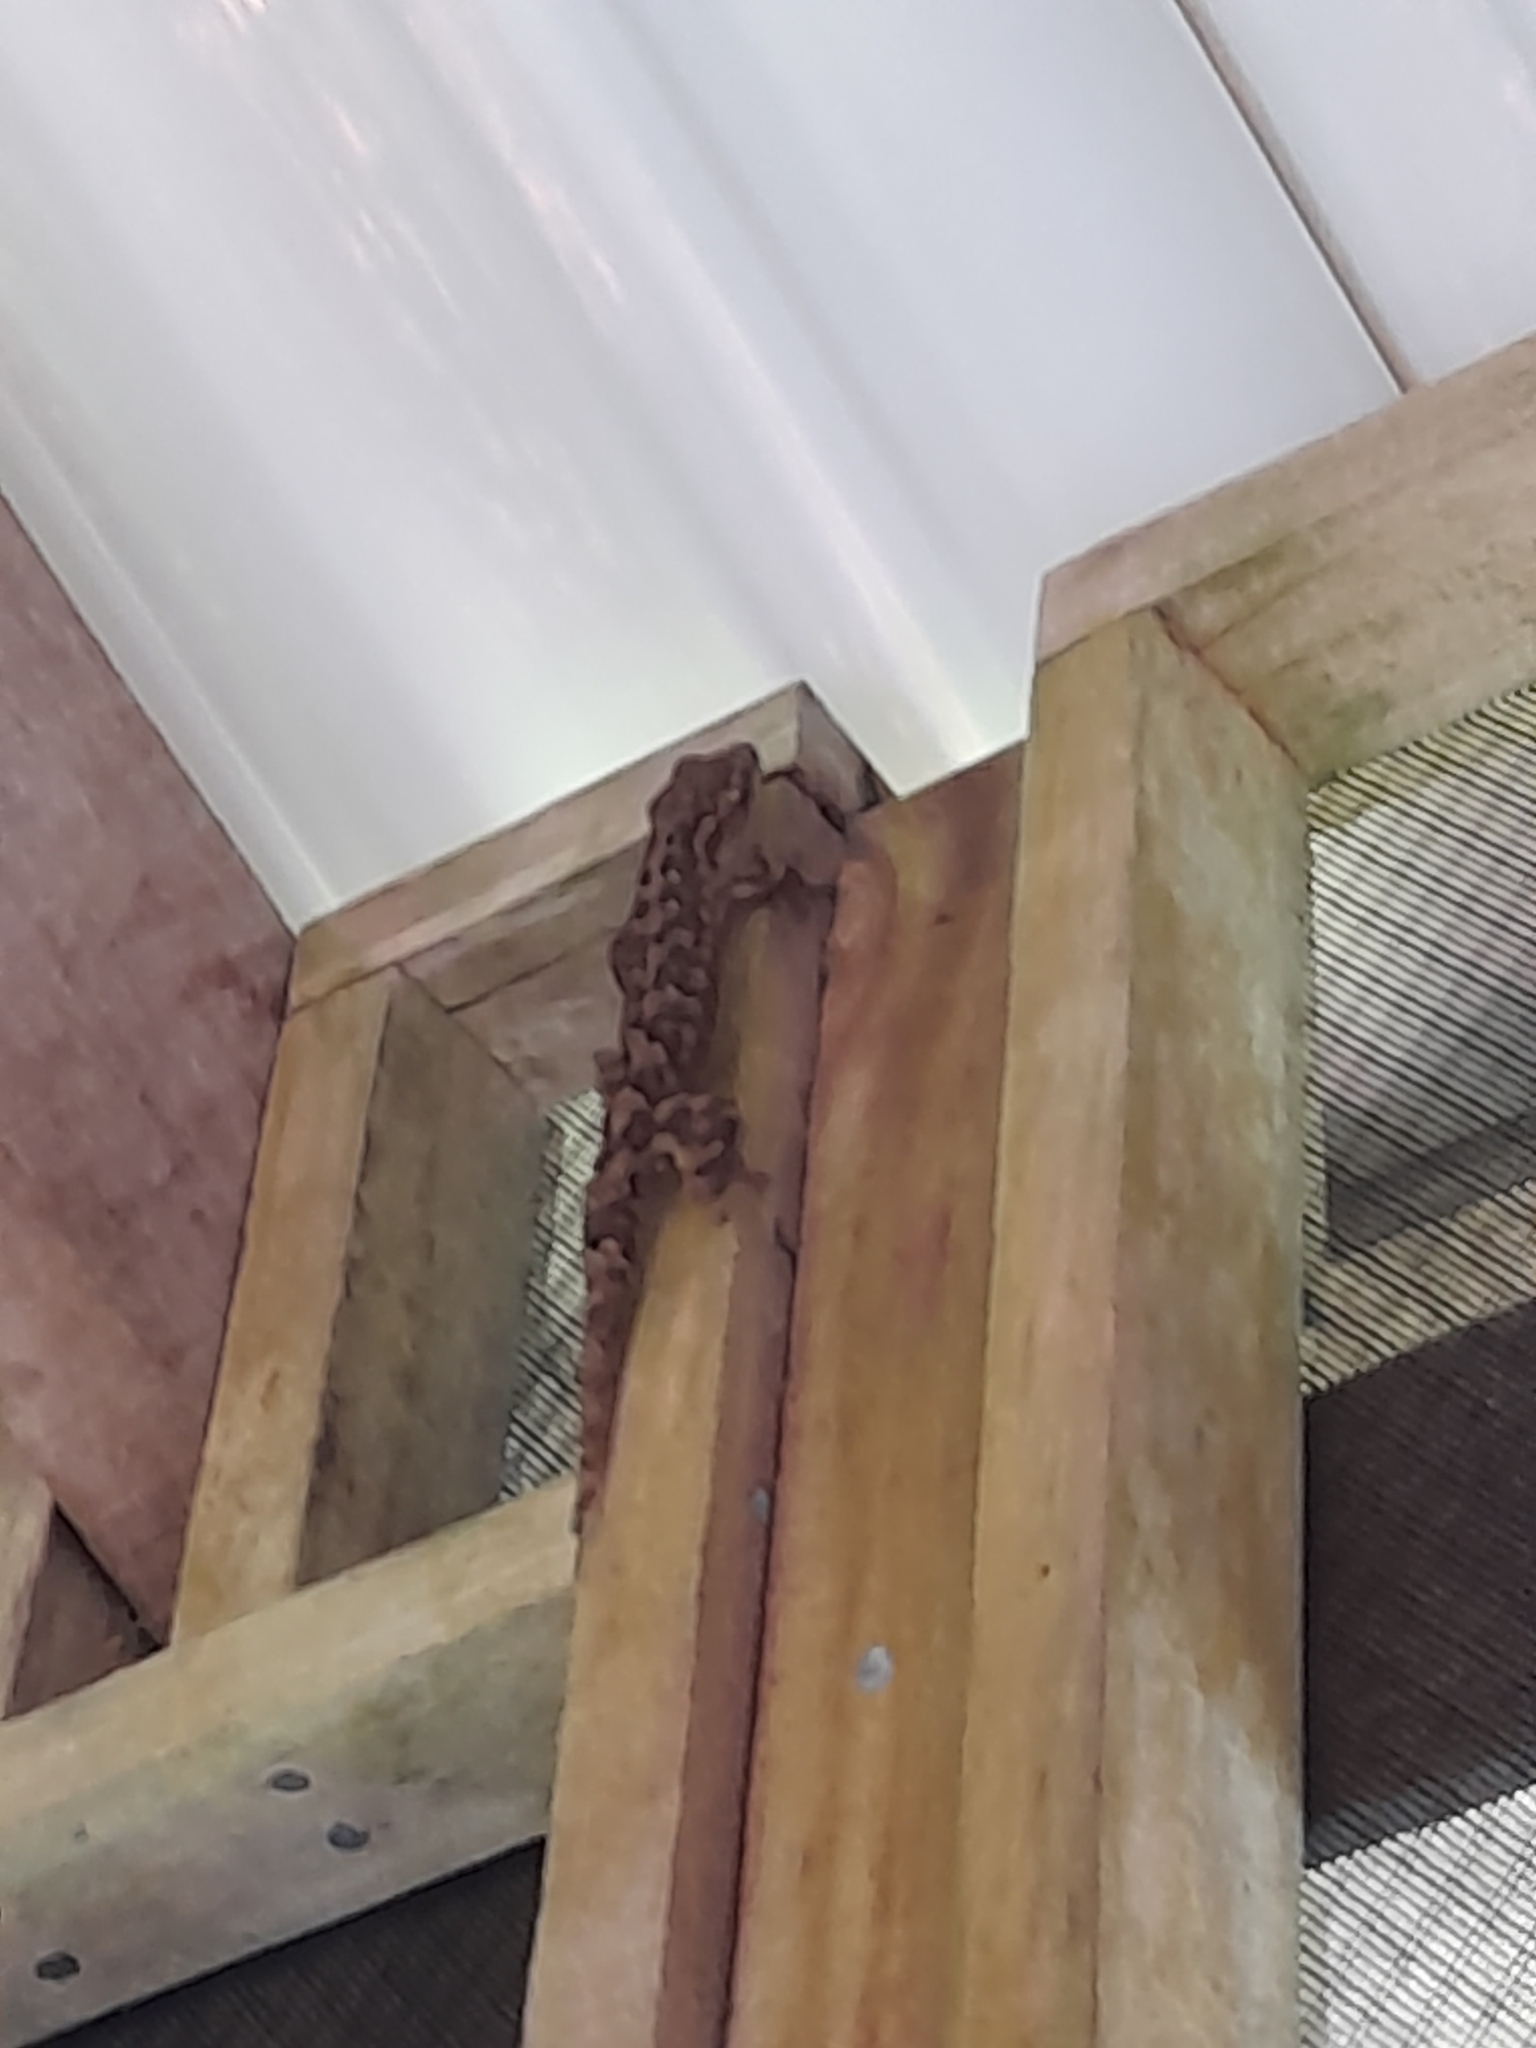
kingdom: Animalia
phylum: Chordata
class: Squamata
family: Phyllodactylidae
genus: Thecadactylus
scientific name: Thecadactylus rapicauda
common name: Turnip-tailed gecko
